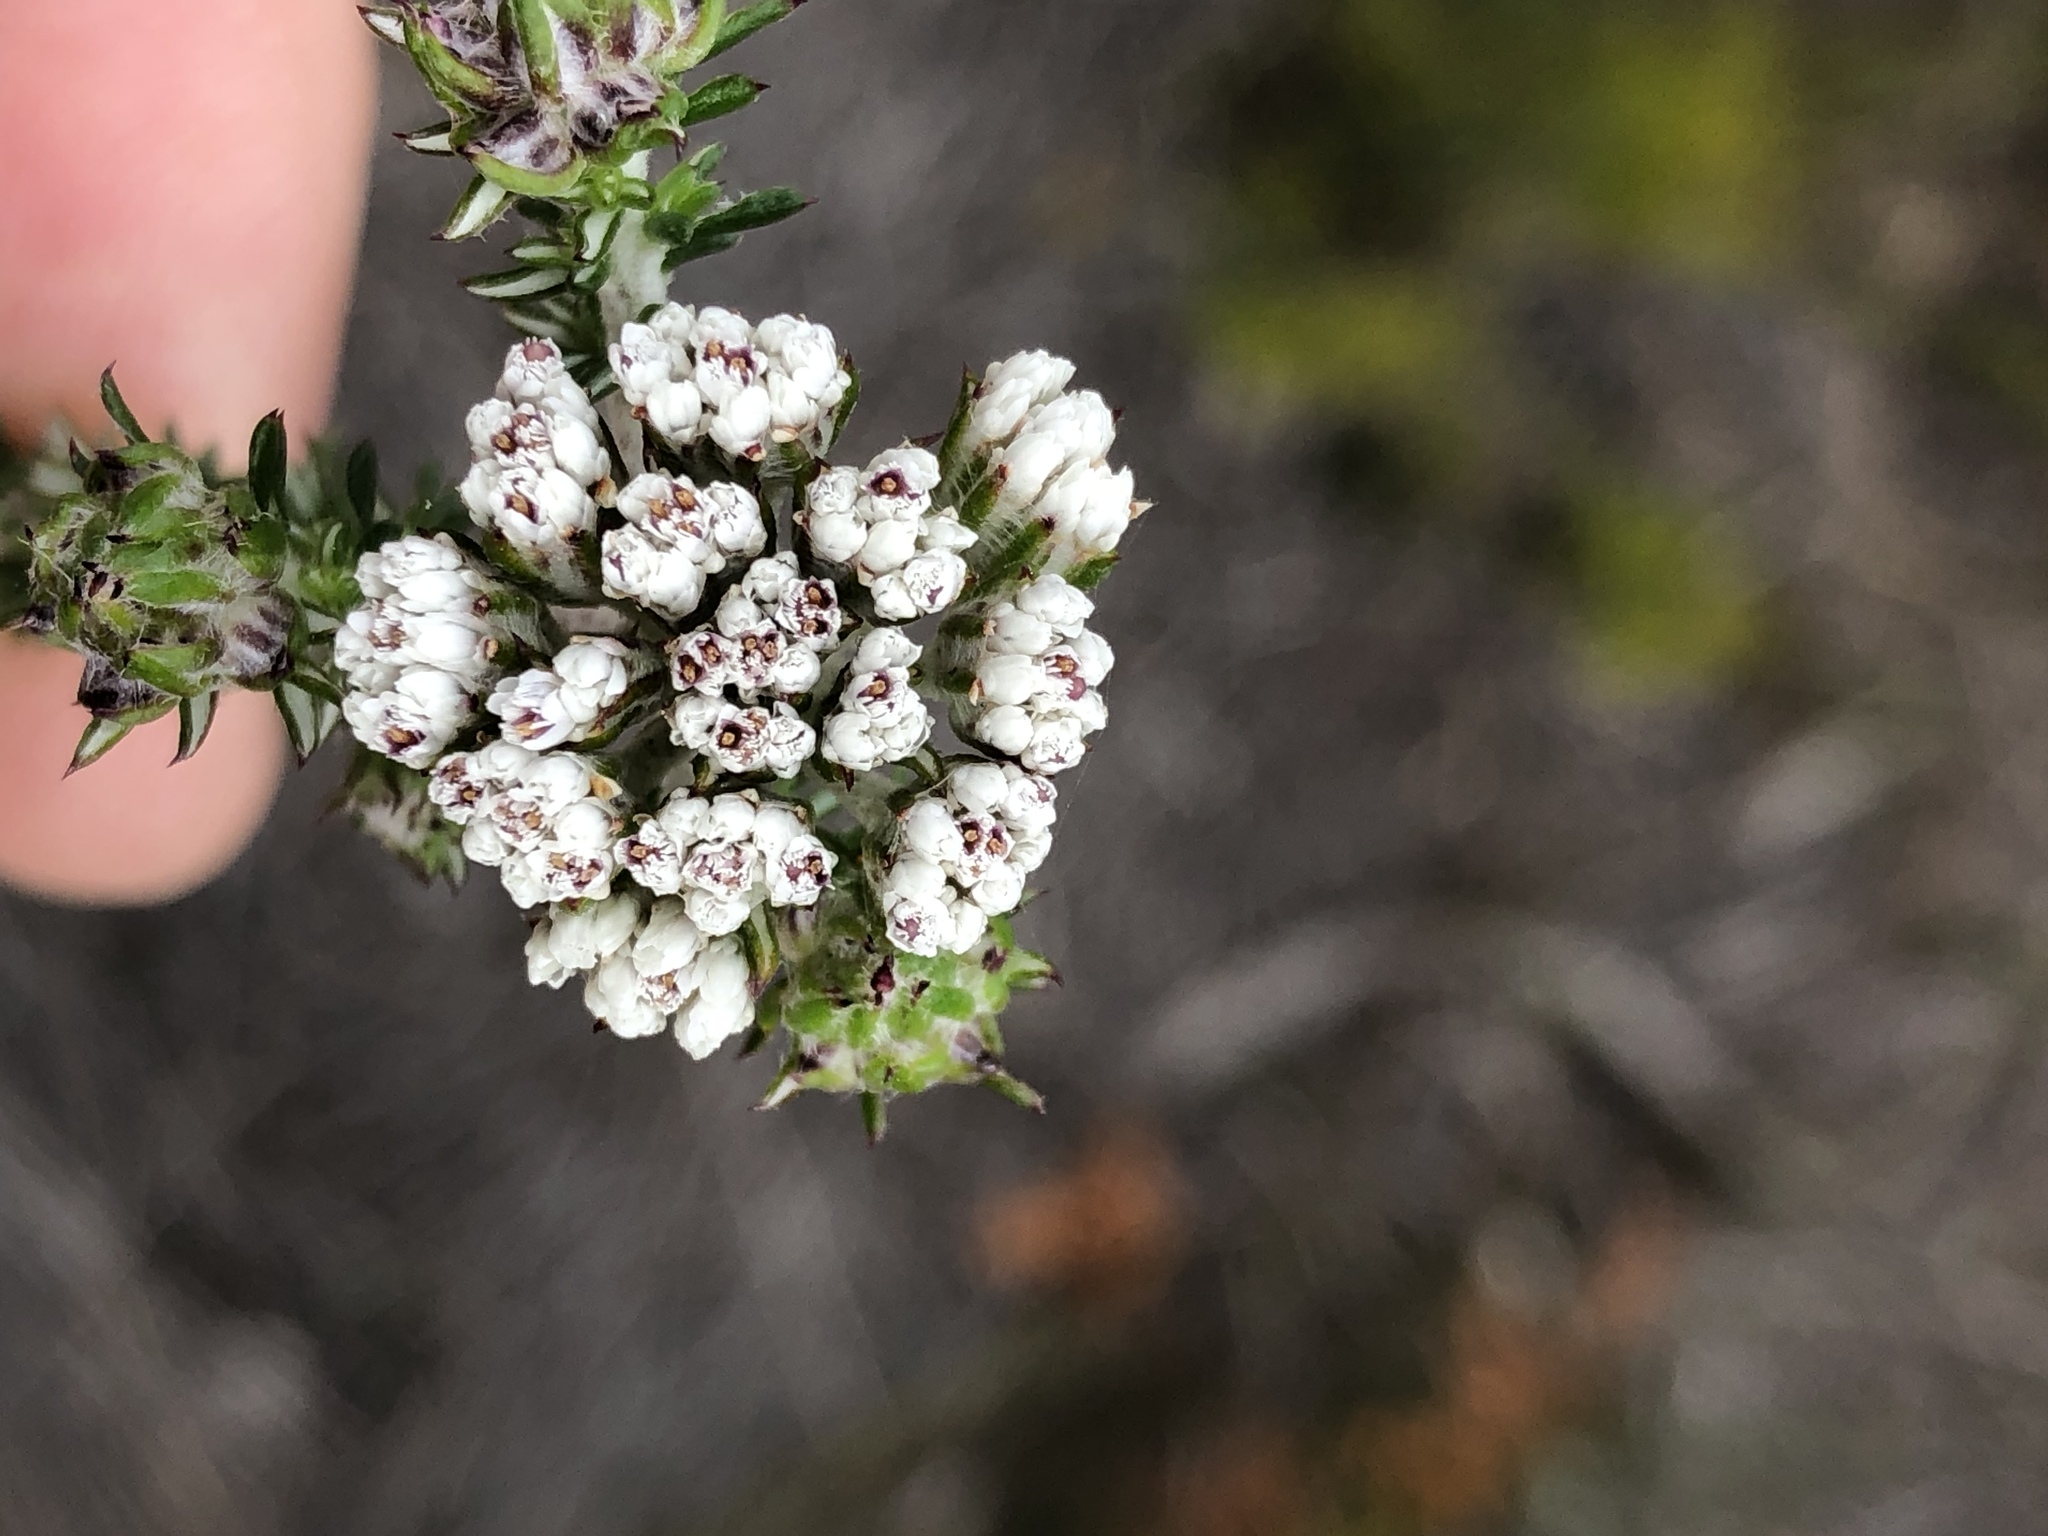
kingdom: Plantae
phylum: Tracheophyta
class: Magnoliopsida
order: Asterales
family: Asteraceae
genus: Metalasia
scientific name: Metalasia densa
